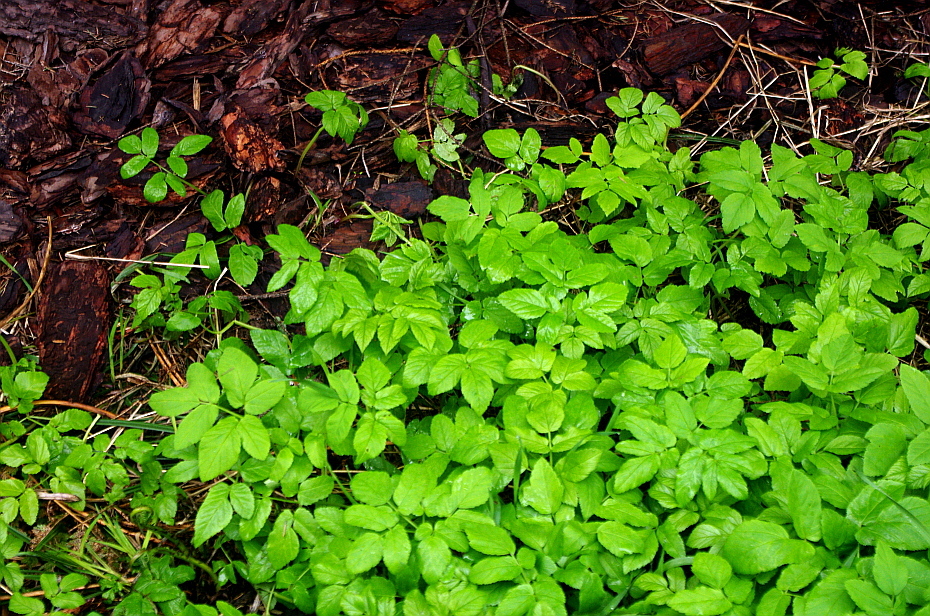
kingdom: Plantae
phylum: Tracheophyta
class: Magnoliopsida
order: Apiales
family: Apiaceae
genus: Aegopodium
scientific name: Aegopodium podagraria
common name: Ground-elder
